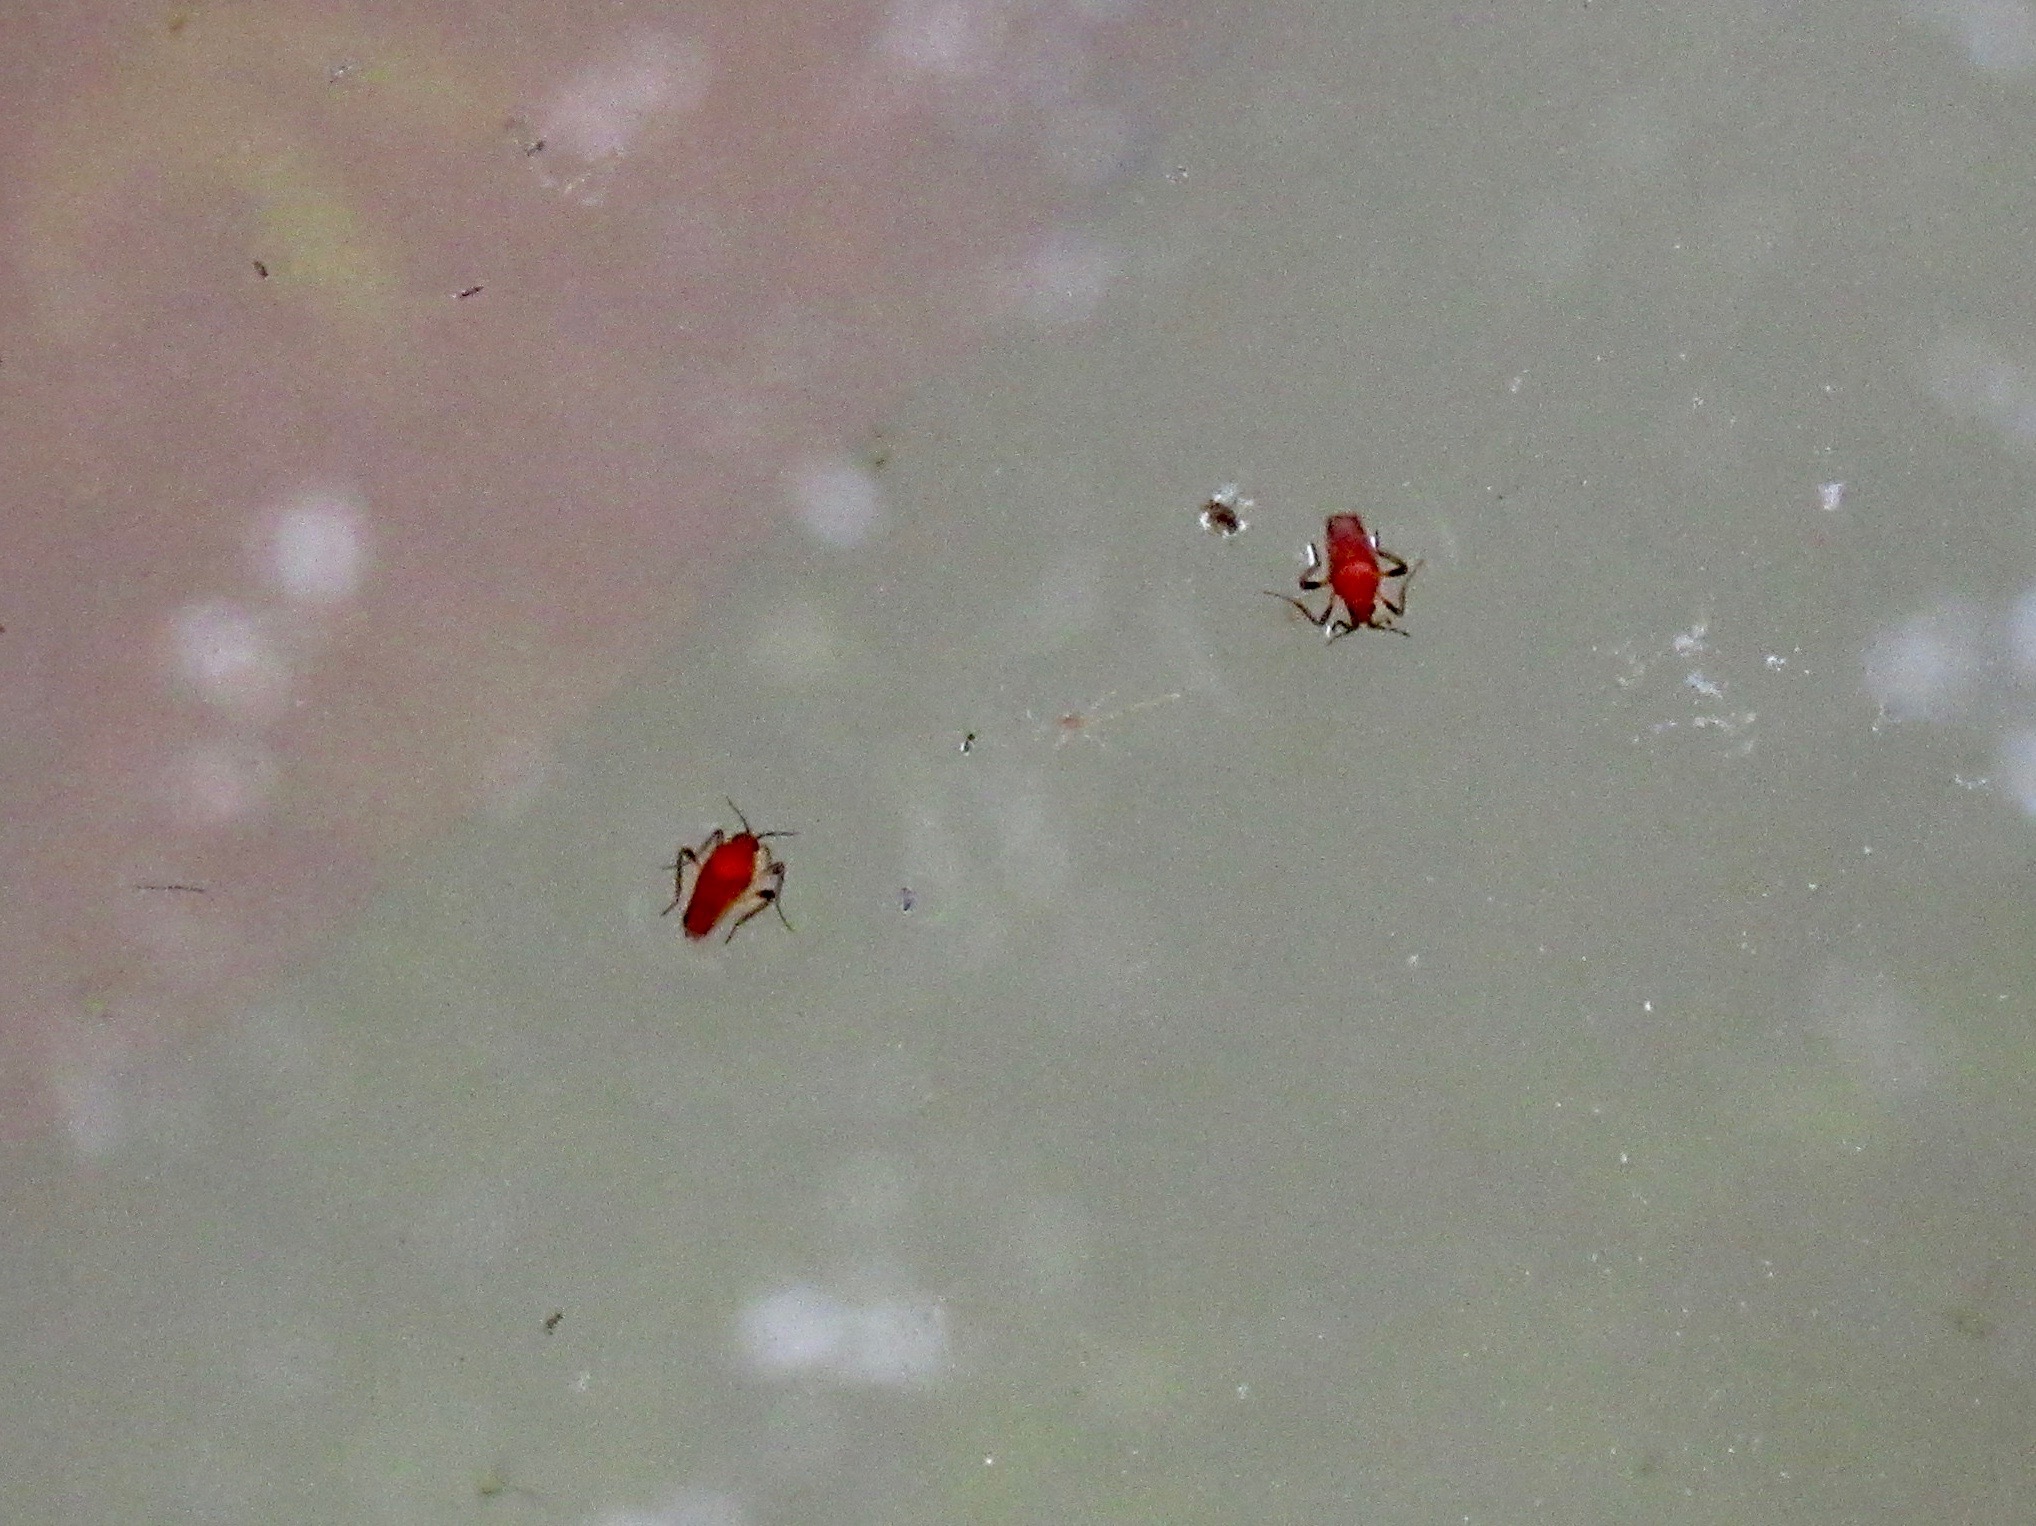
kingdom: Animalia
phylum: Arthropoda
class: Insecta
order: Hemiptera
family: Veliidae
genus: Perittopus
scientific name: Perittopus
